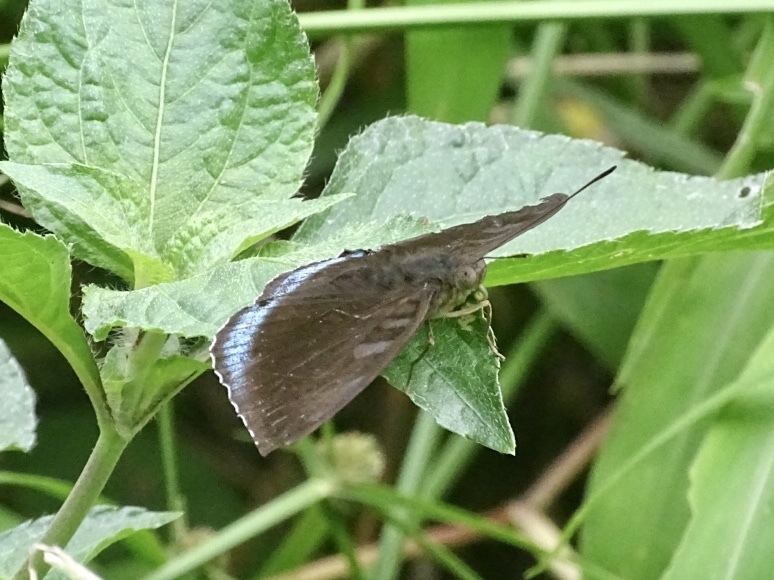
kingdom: Animalia
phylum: Arthropoda
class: Insecta
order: Lepidoptera
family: Nymphalidae
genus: Tanaecia
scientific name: Tanaecia
